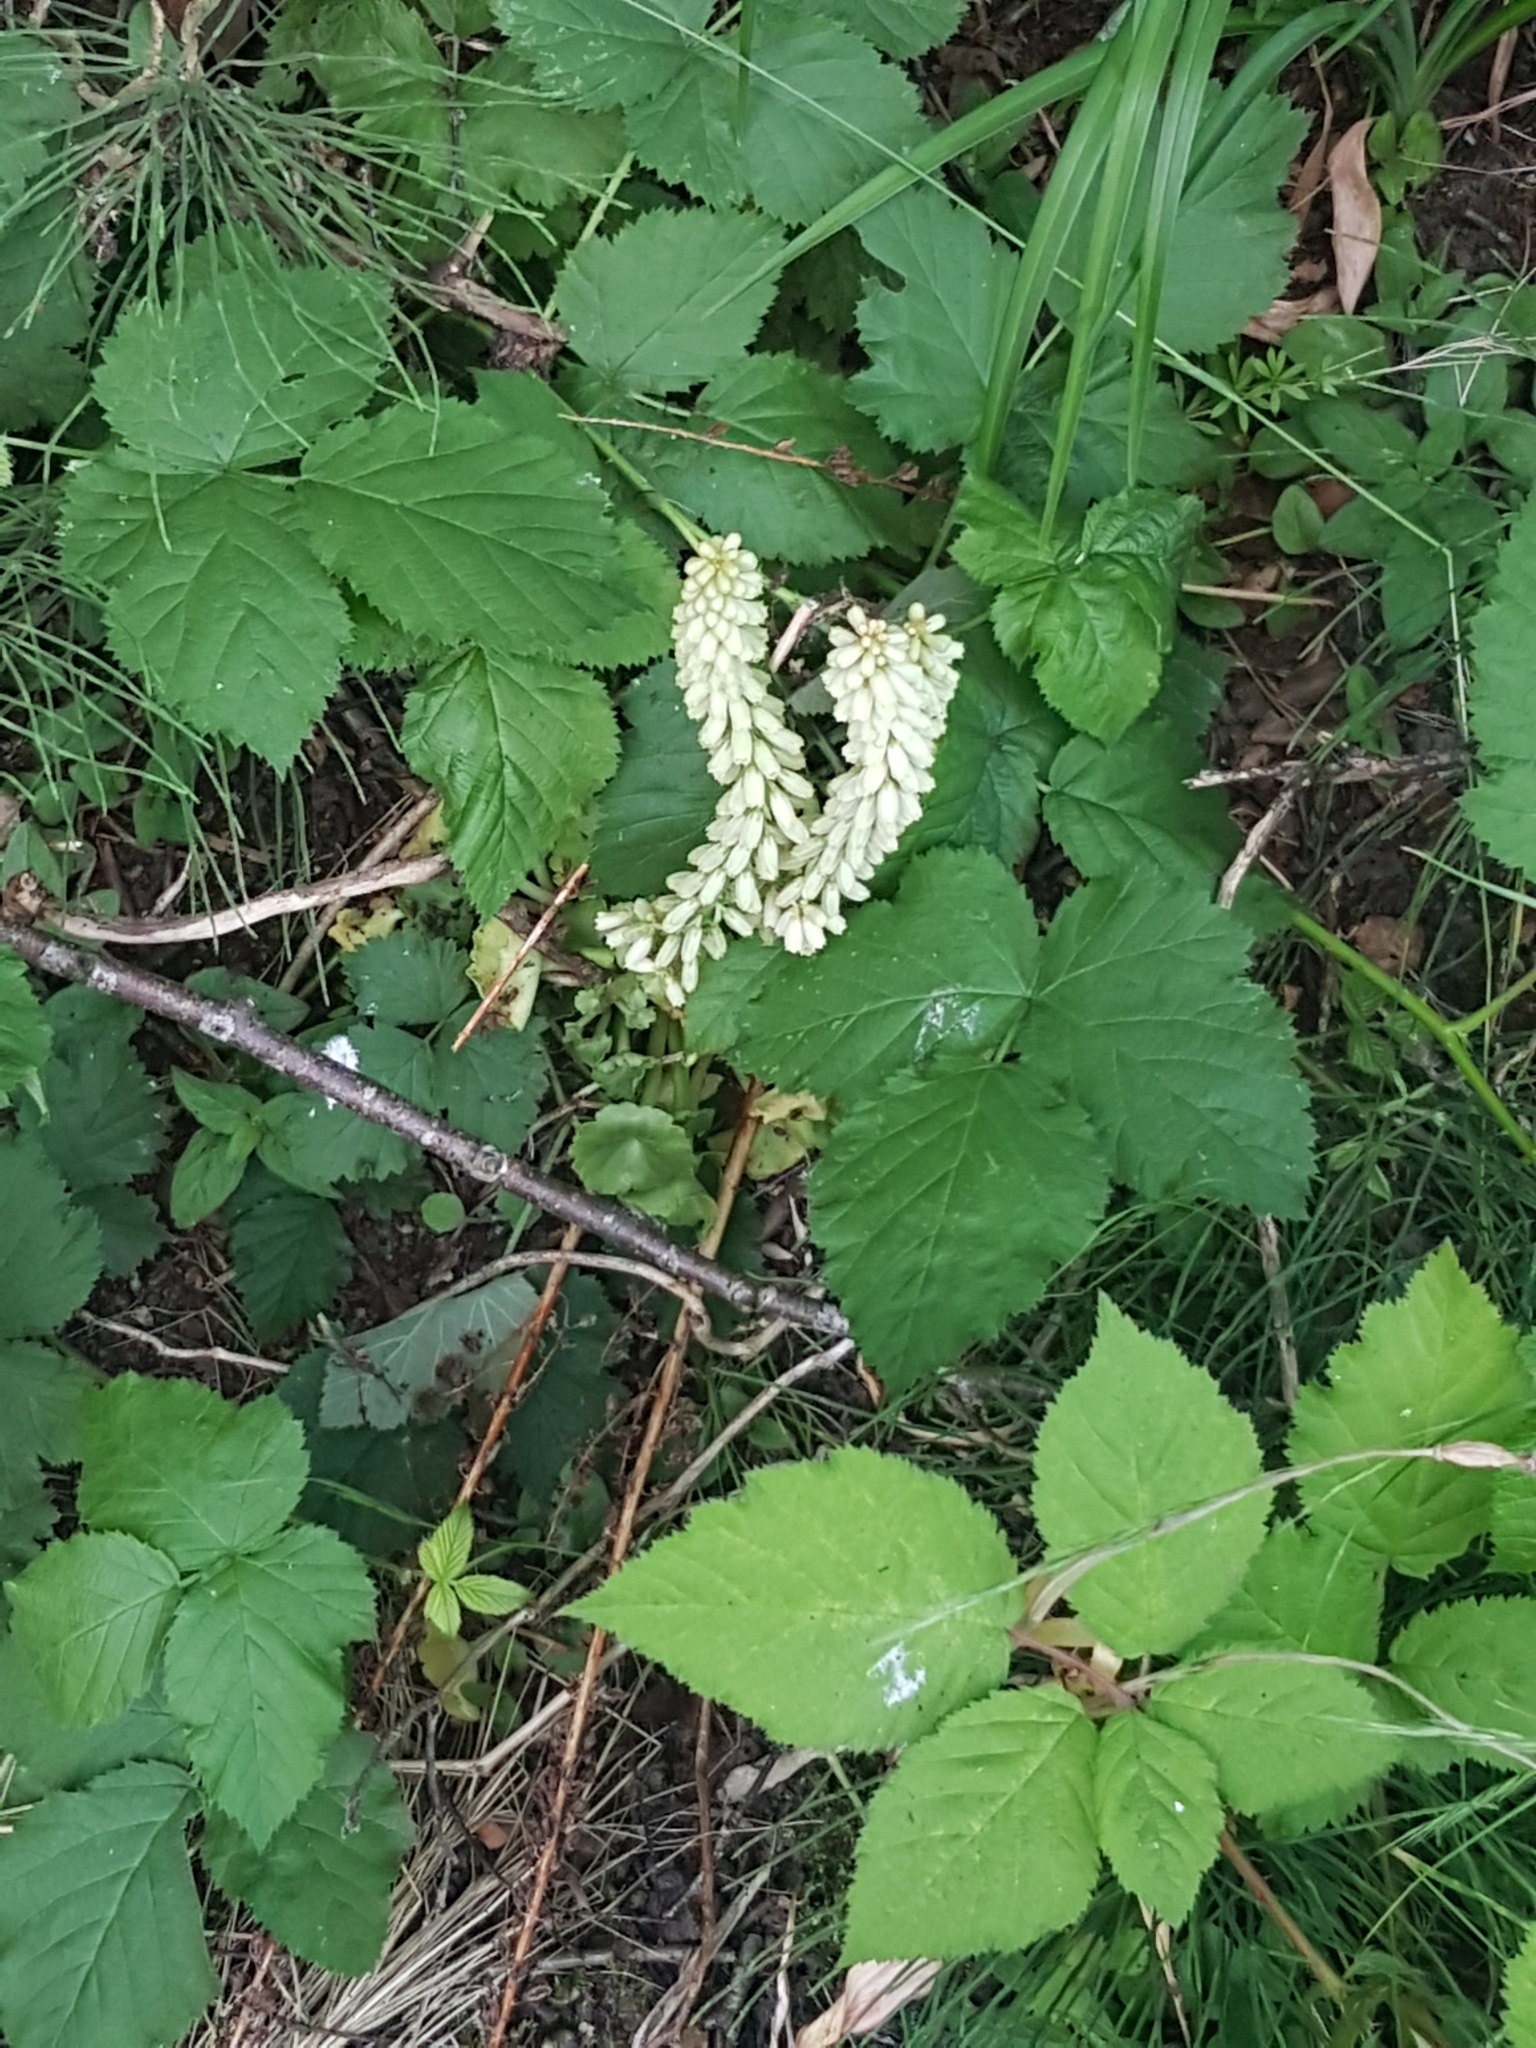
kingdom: Plantae
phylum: Tracheophyta
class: Magnoliopsida
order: Saxifragales
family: Crassulaceae
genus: Umbilicus
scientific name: Umbilicus rupestris
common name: Navelwort
